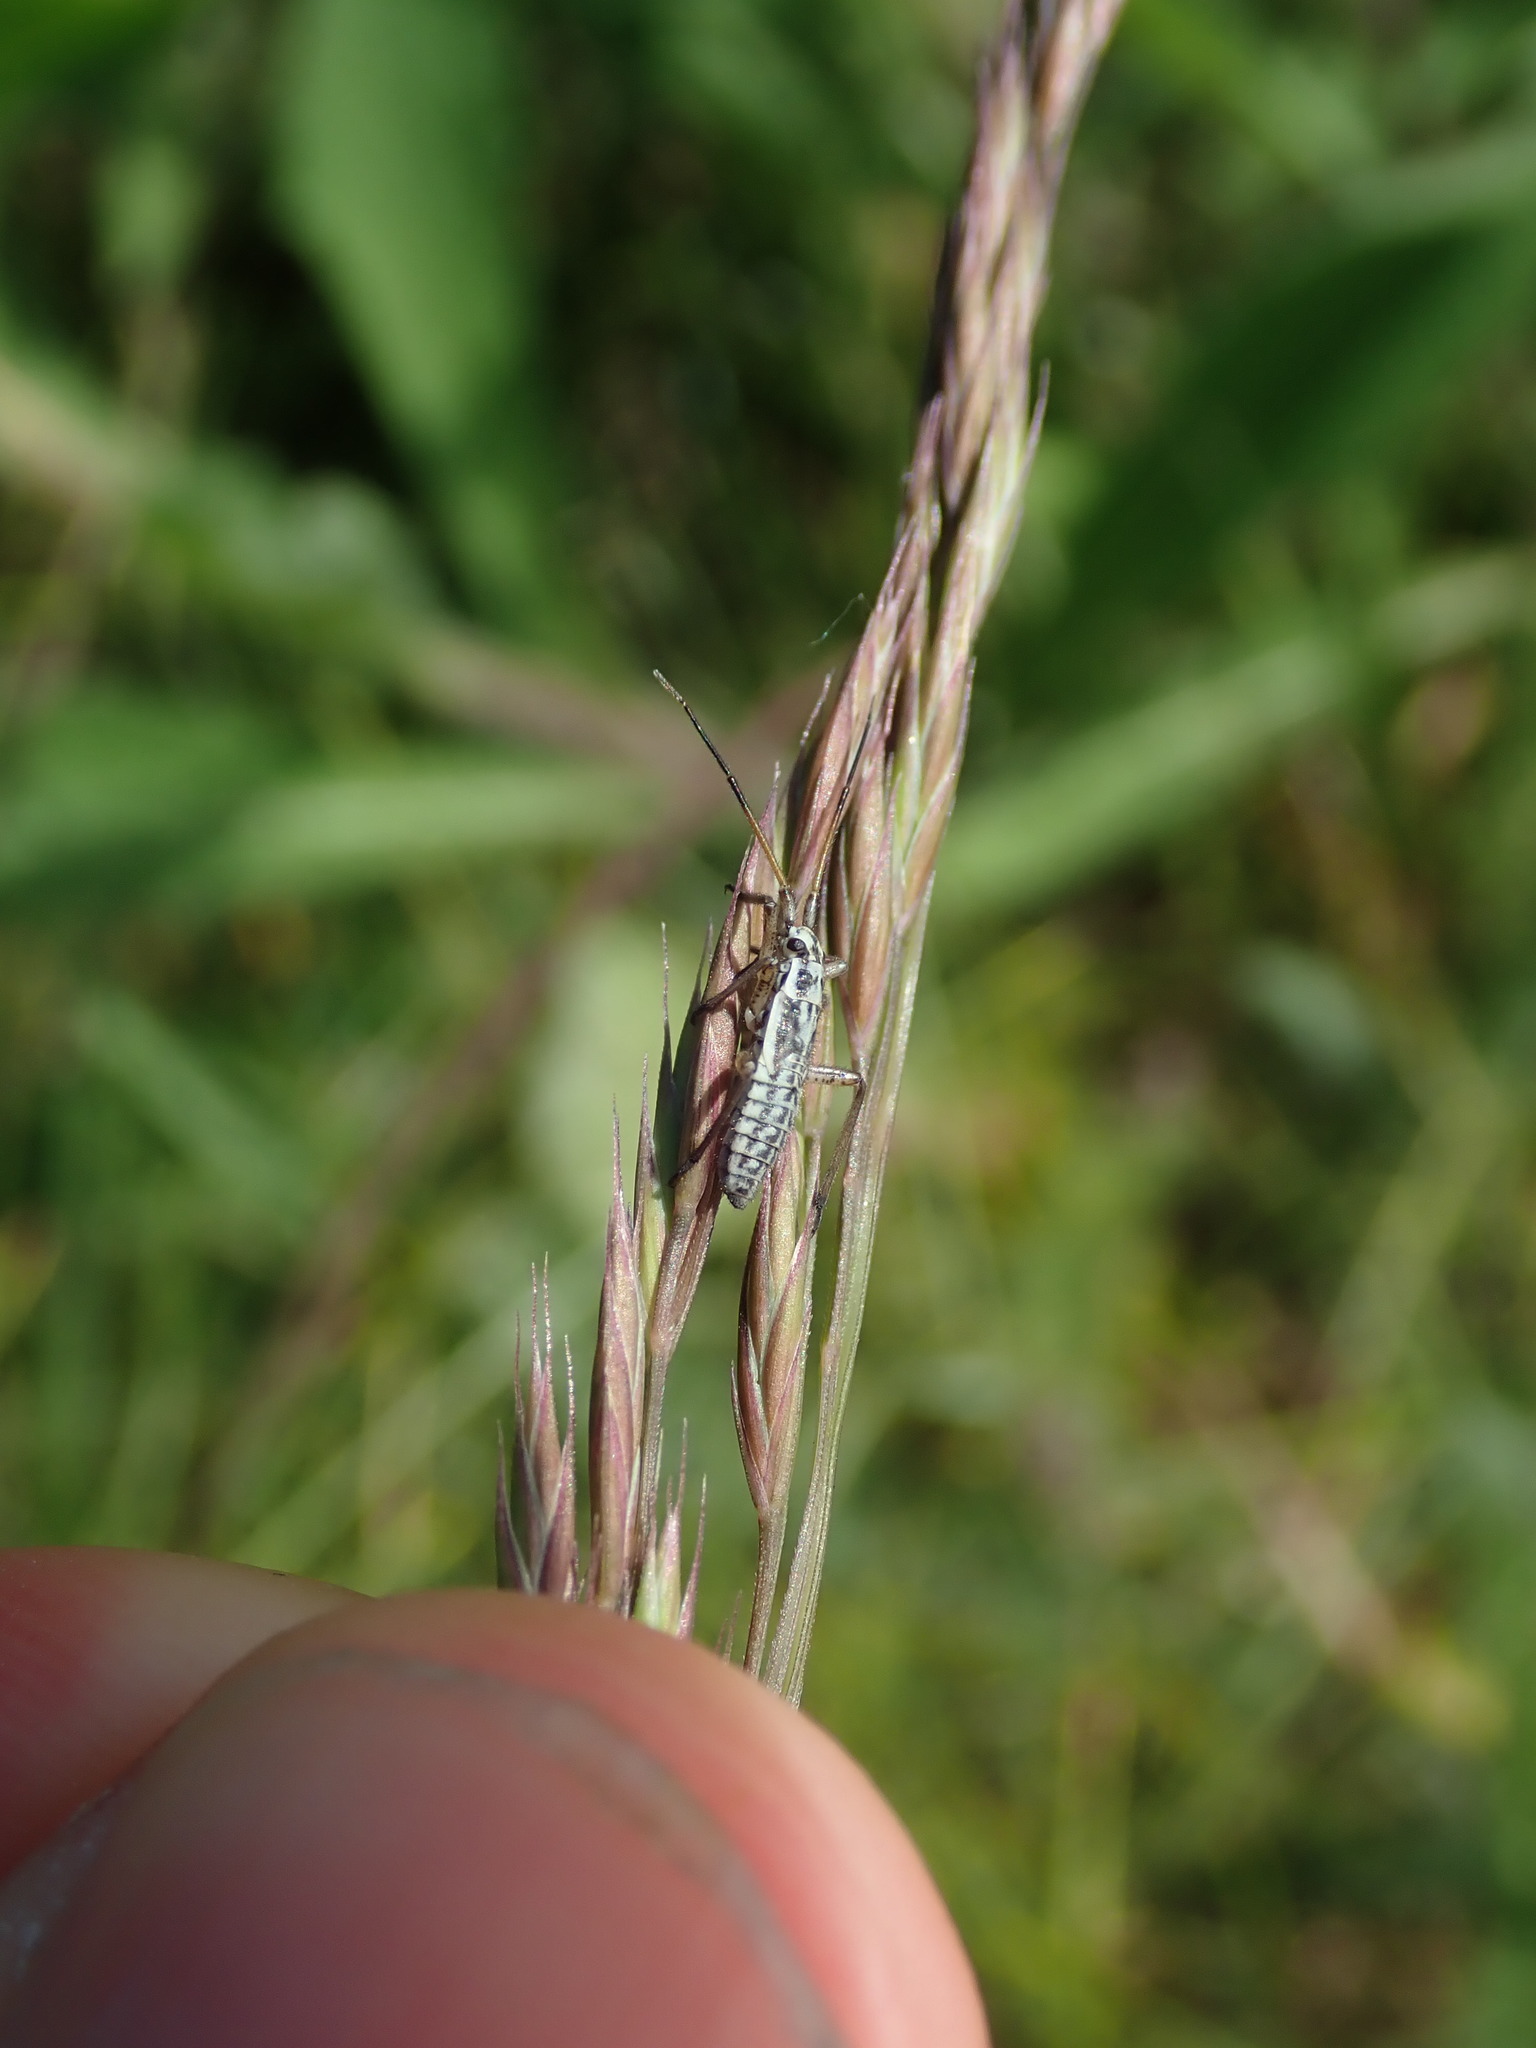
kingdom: Animalia
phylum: Arthropoda
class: Insecta
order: Hemiptera
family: Miridae
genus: Leptopterna
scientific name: Leptopterna dolabrata
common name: Meadow plant bug
